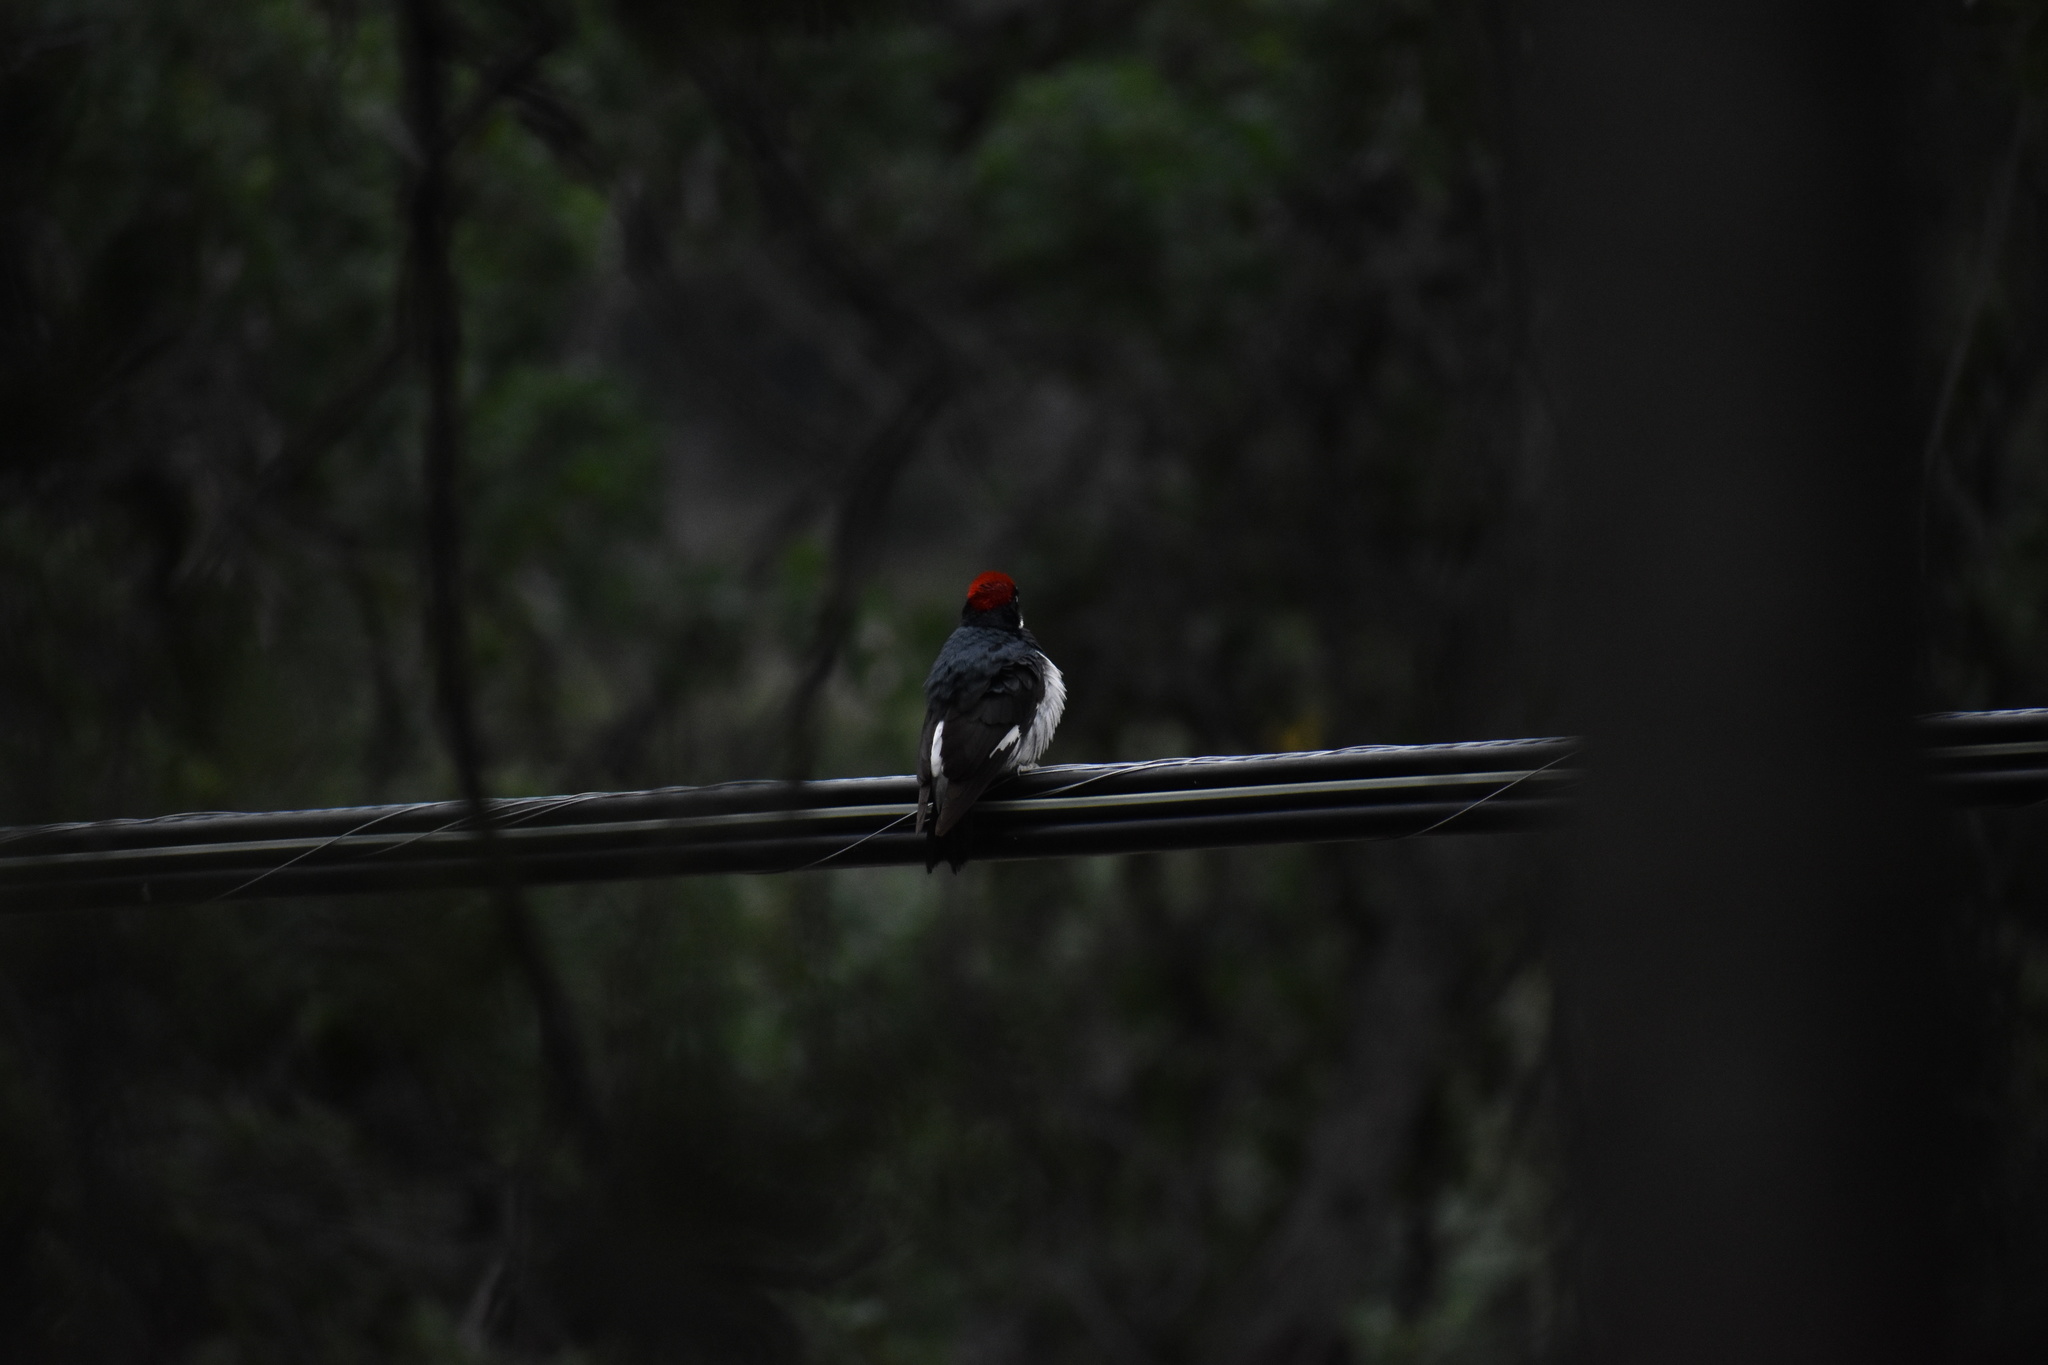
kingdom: Animalia
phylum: Chordata
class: Aves
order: Piciformes
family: Picidae
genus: Melanerpes
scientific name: Melanerpes formicivorus
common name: Acorn woodpecker
